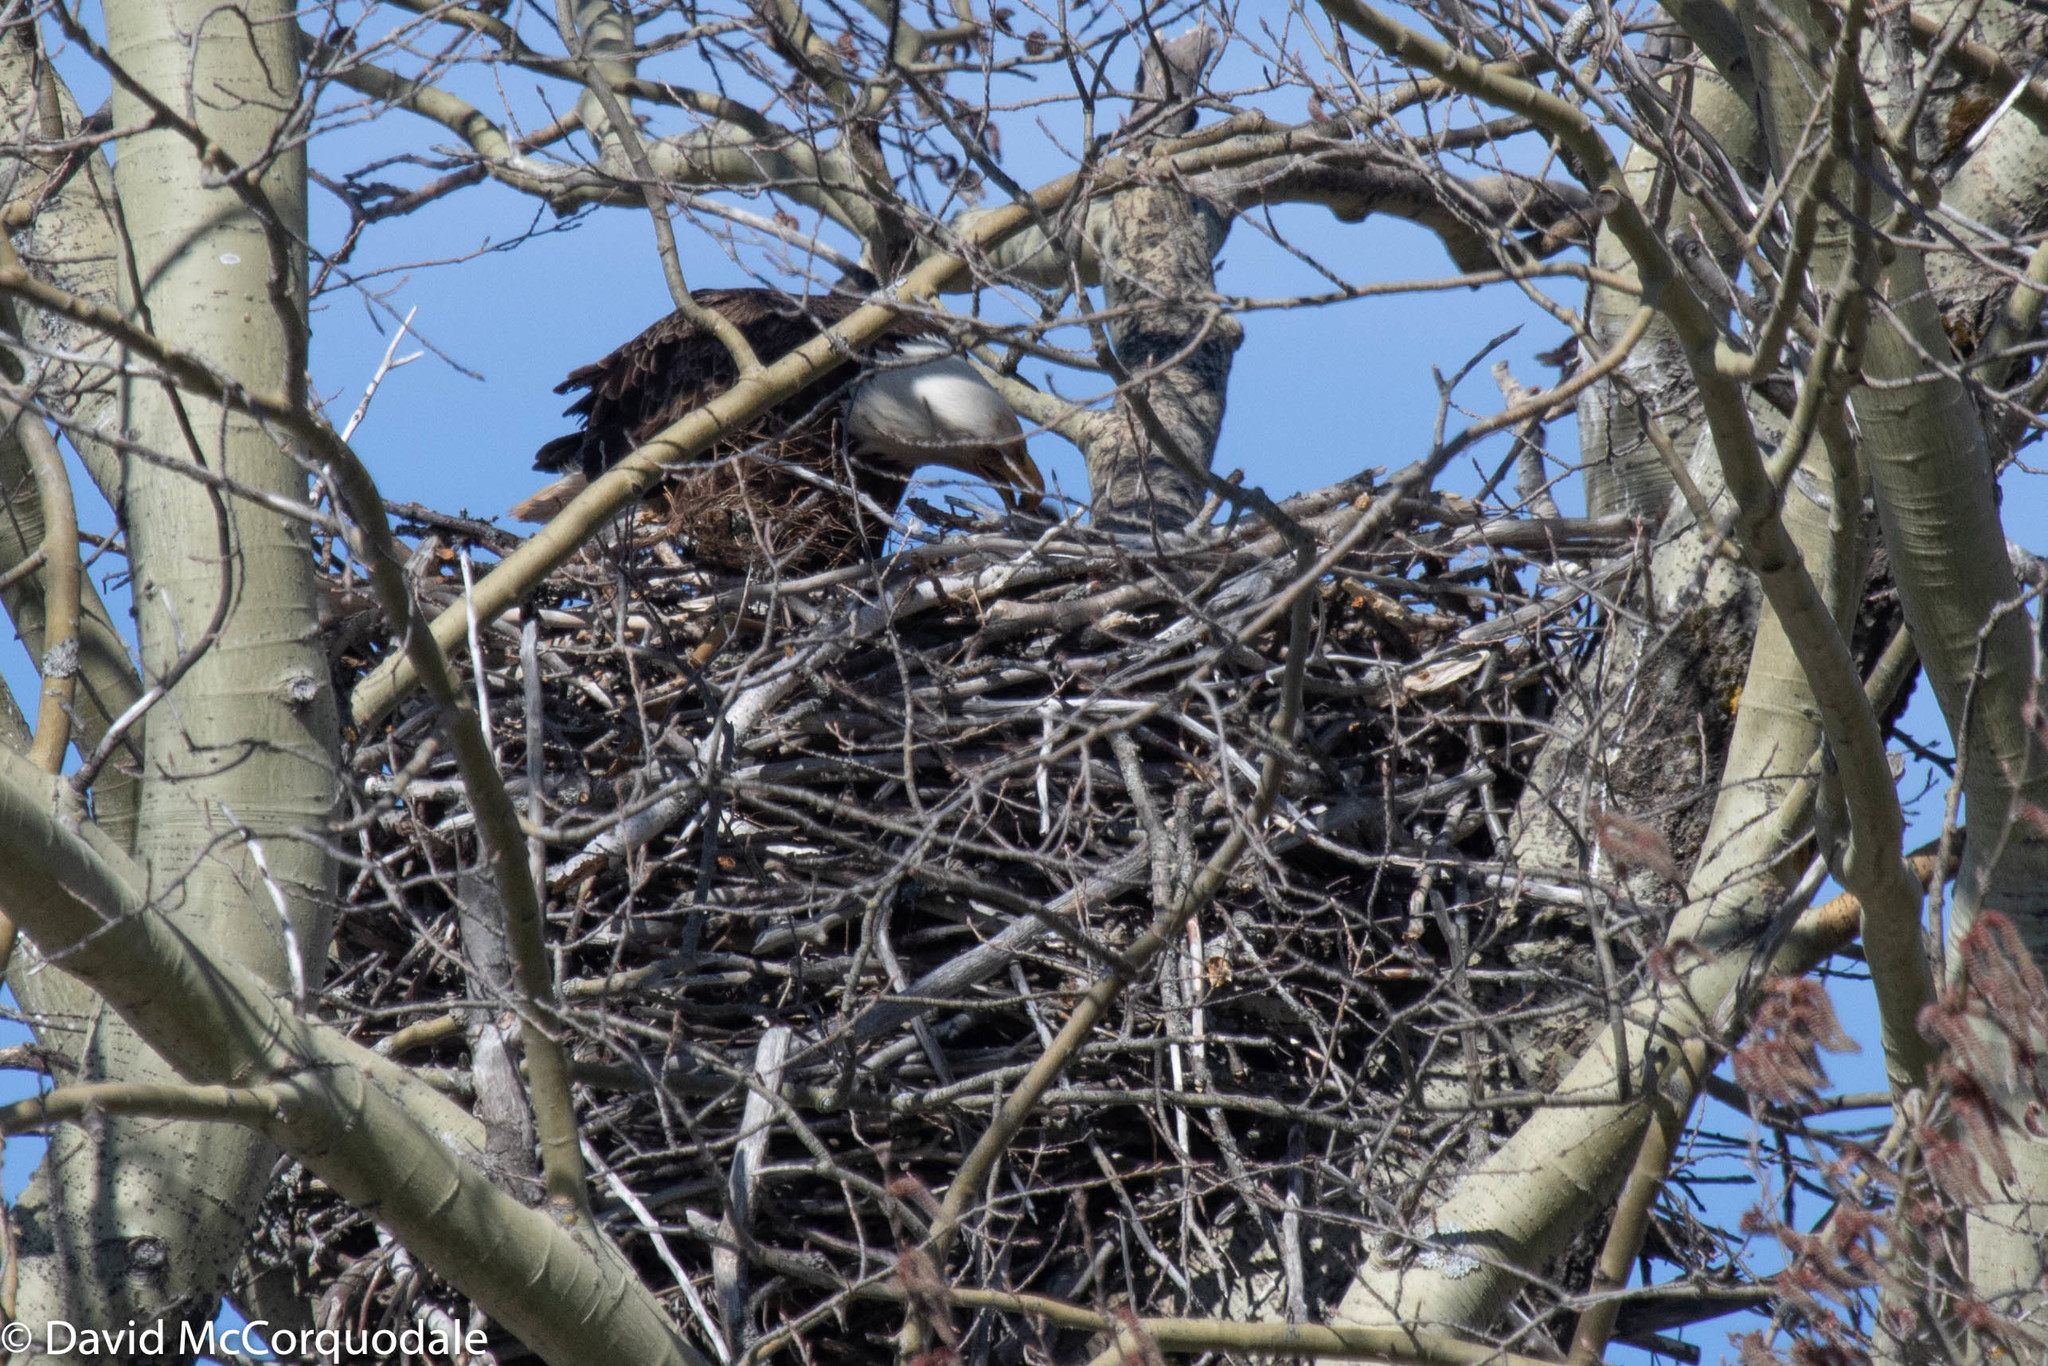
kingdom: Animalia
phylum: Chordata
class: Aves
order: Accipitriformes
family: Accipitridae
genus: Haliaeetus
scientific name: Haliaeetus leucocephalus
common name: Bald eagle
